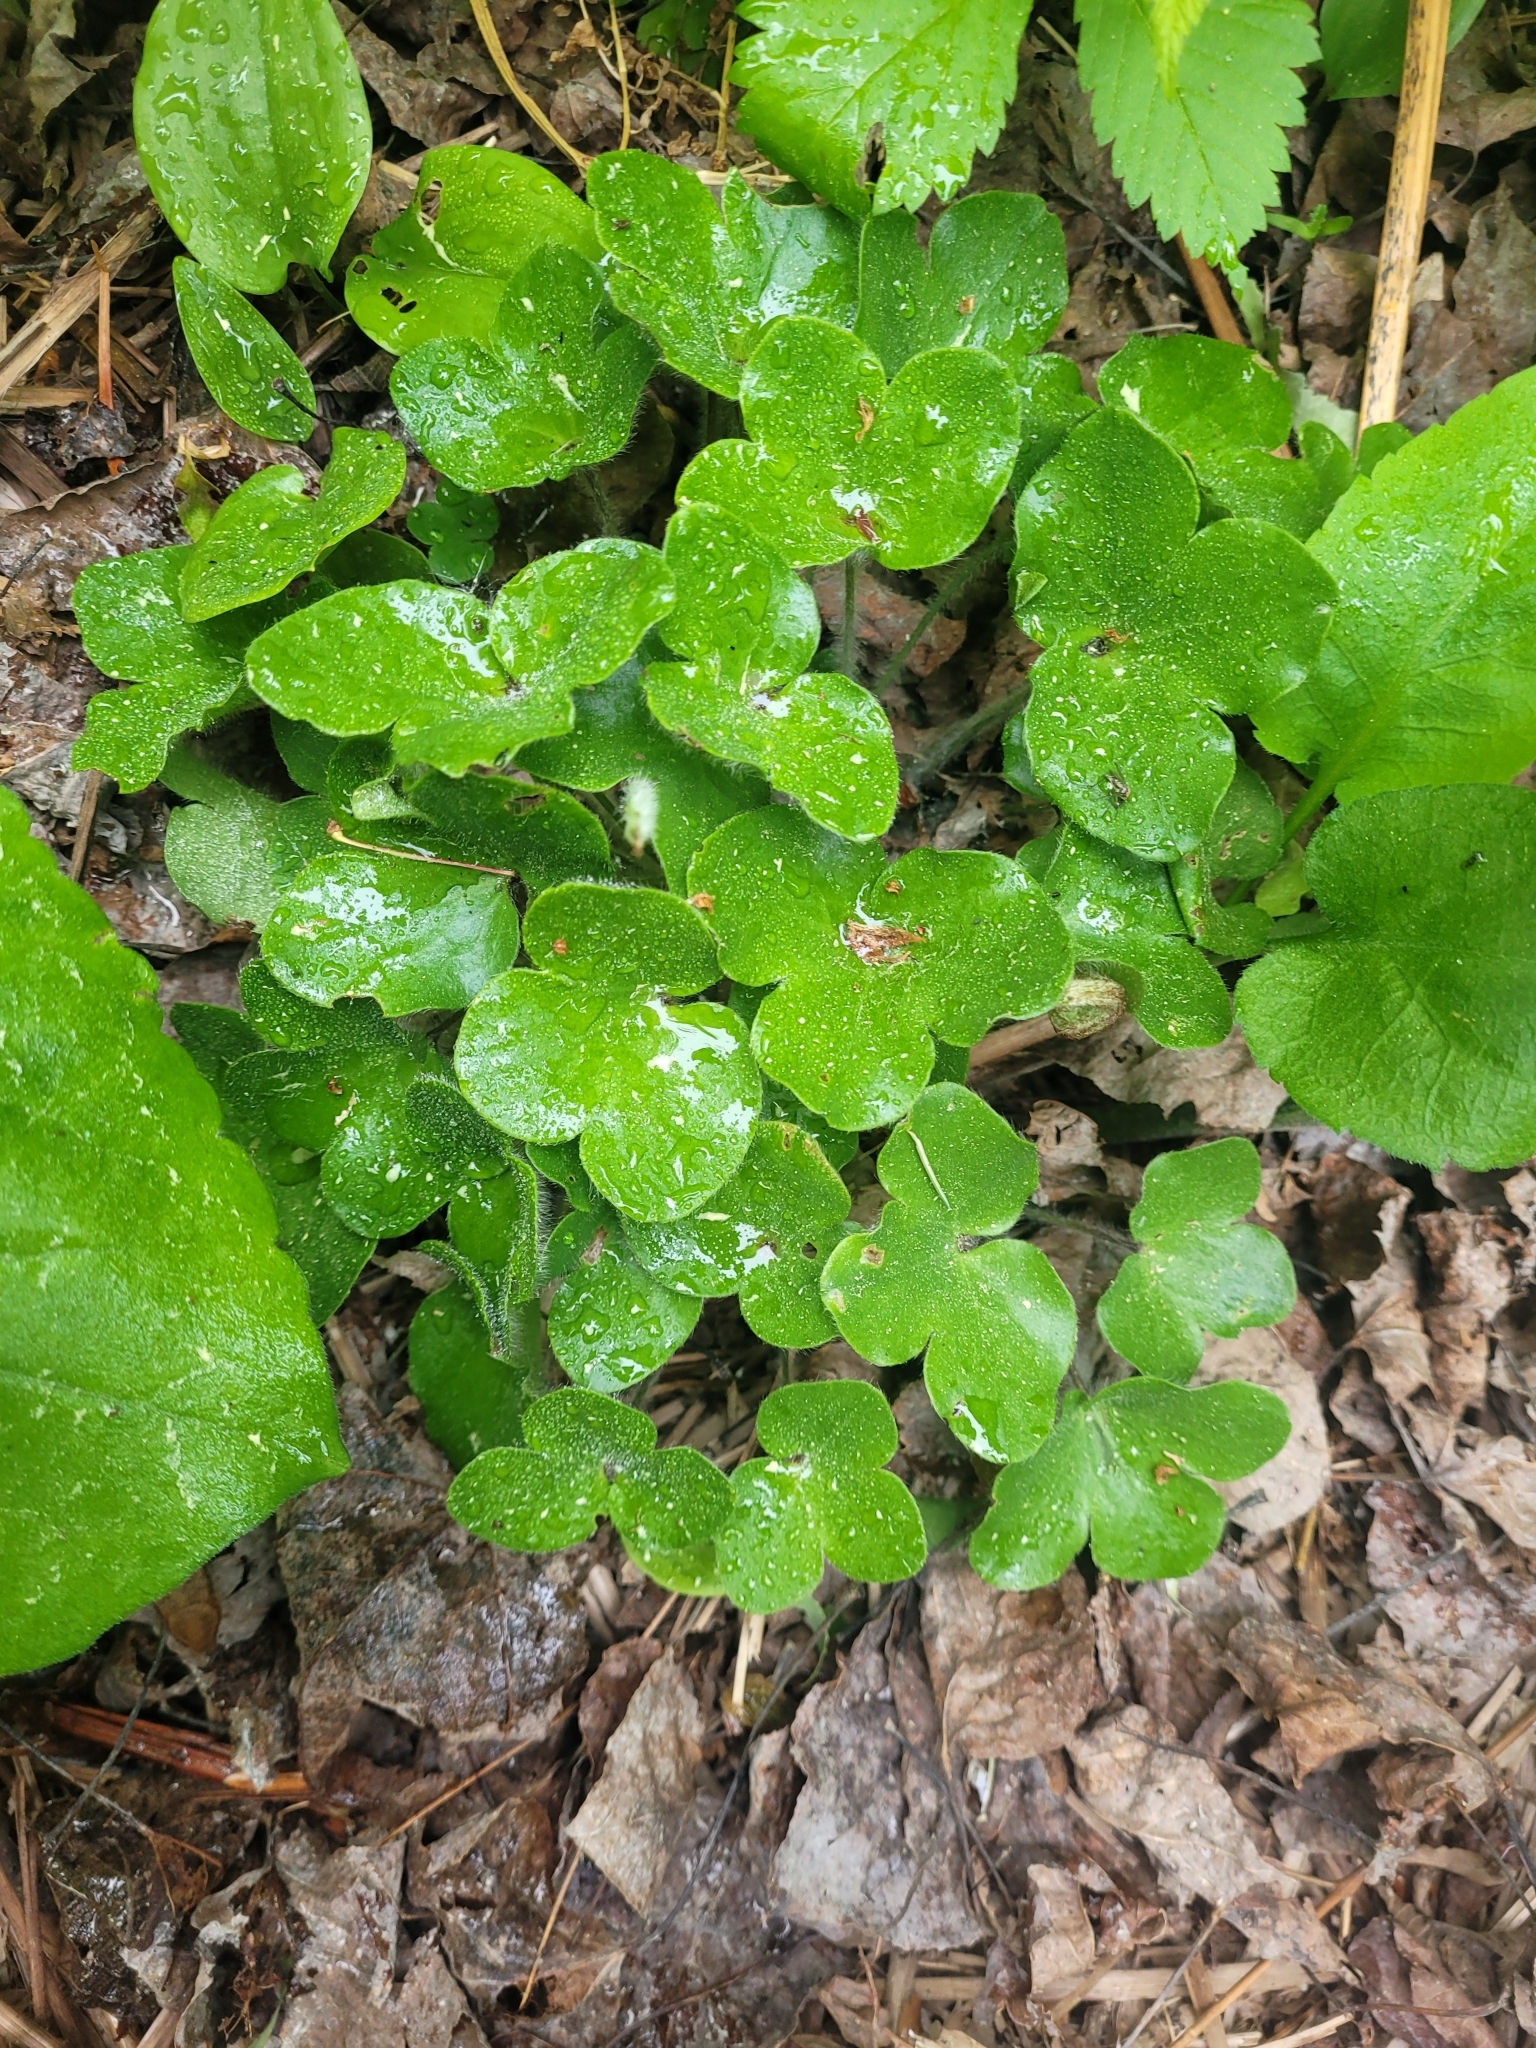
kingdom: Plantae
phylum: Tracheophyta
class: Magnoliopsida
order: Ranunculales
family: Ranunculaceae
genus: Hepatica
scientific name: Hepatica americana
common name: American hepatica
